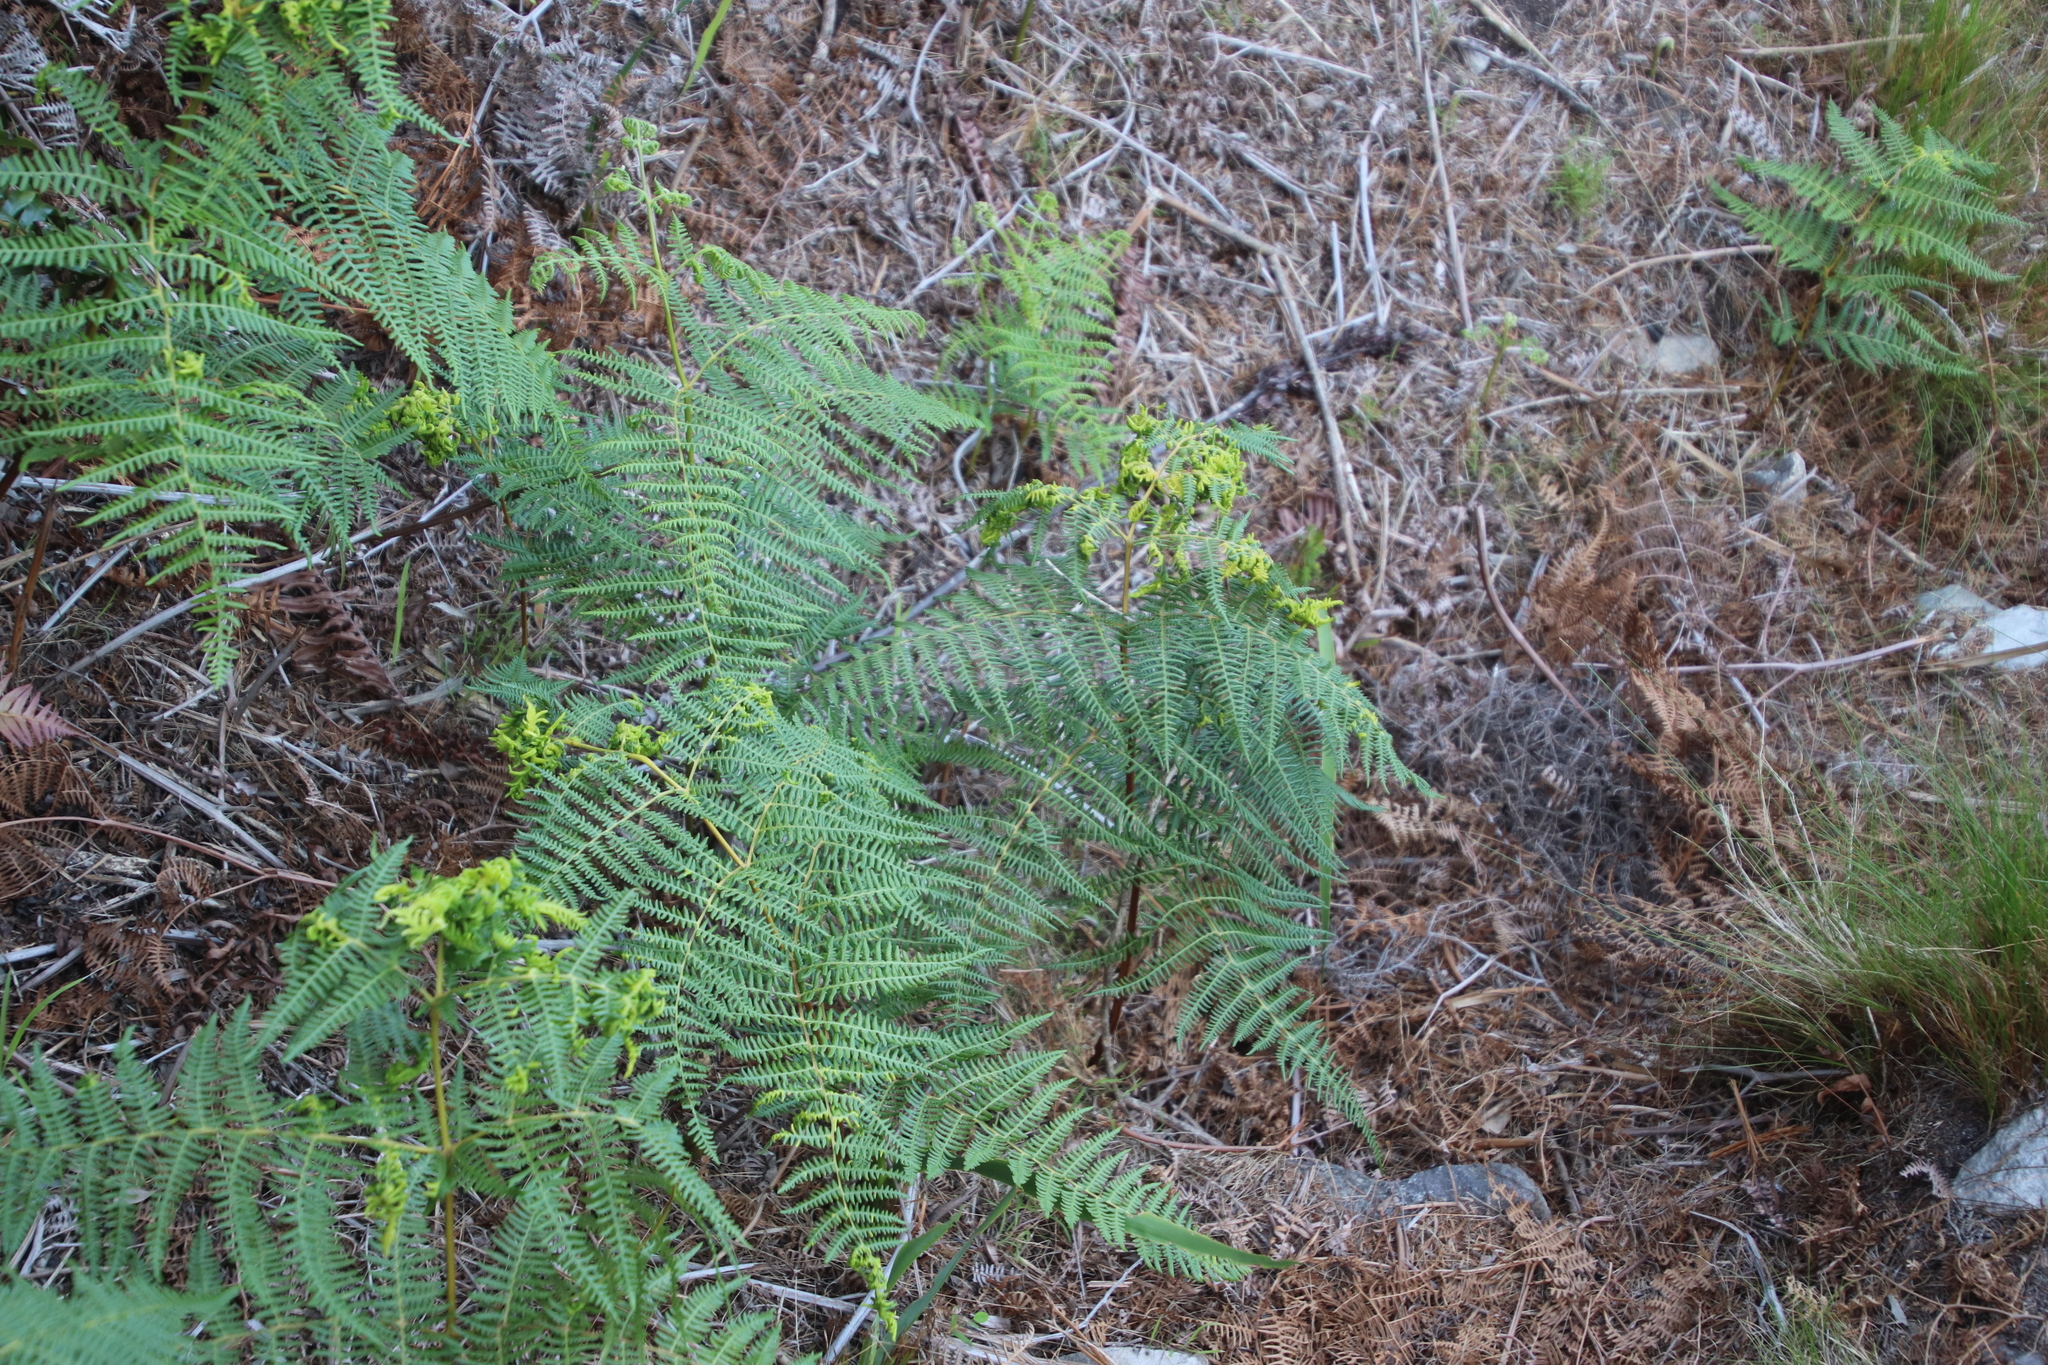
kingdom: Plantae
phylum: Tracheophyta
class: Polypodiopsida
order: Polypodiales
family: Dennstaedtiaceae
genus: Pteridium
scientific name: Pteridium aquilinum
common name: Bracken
